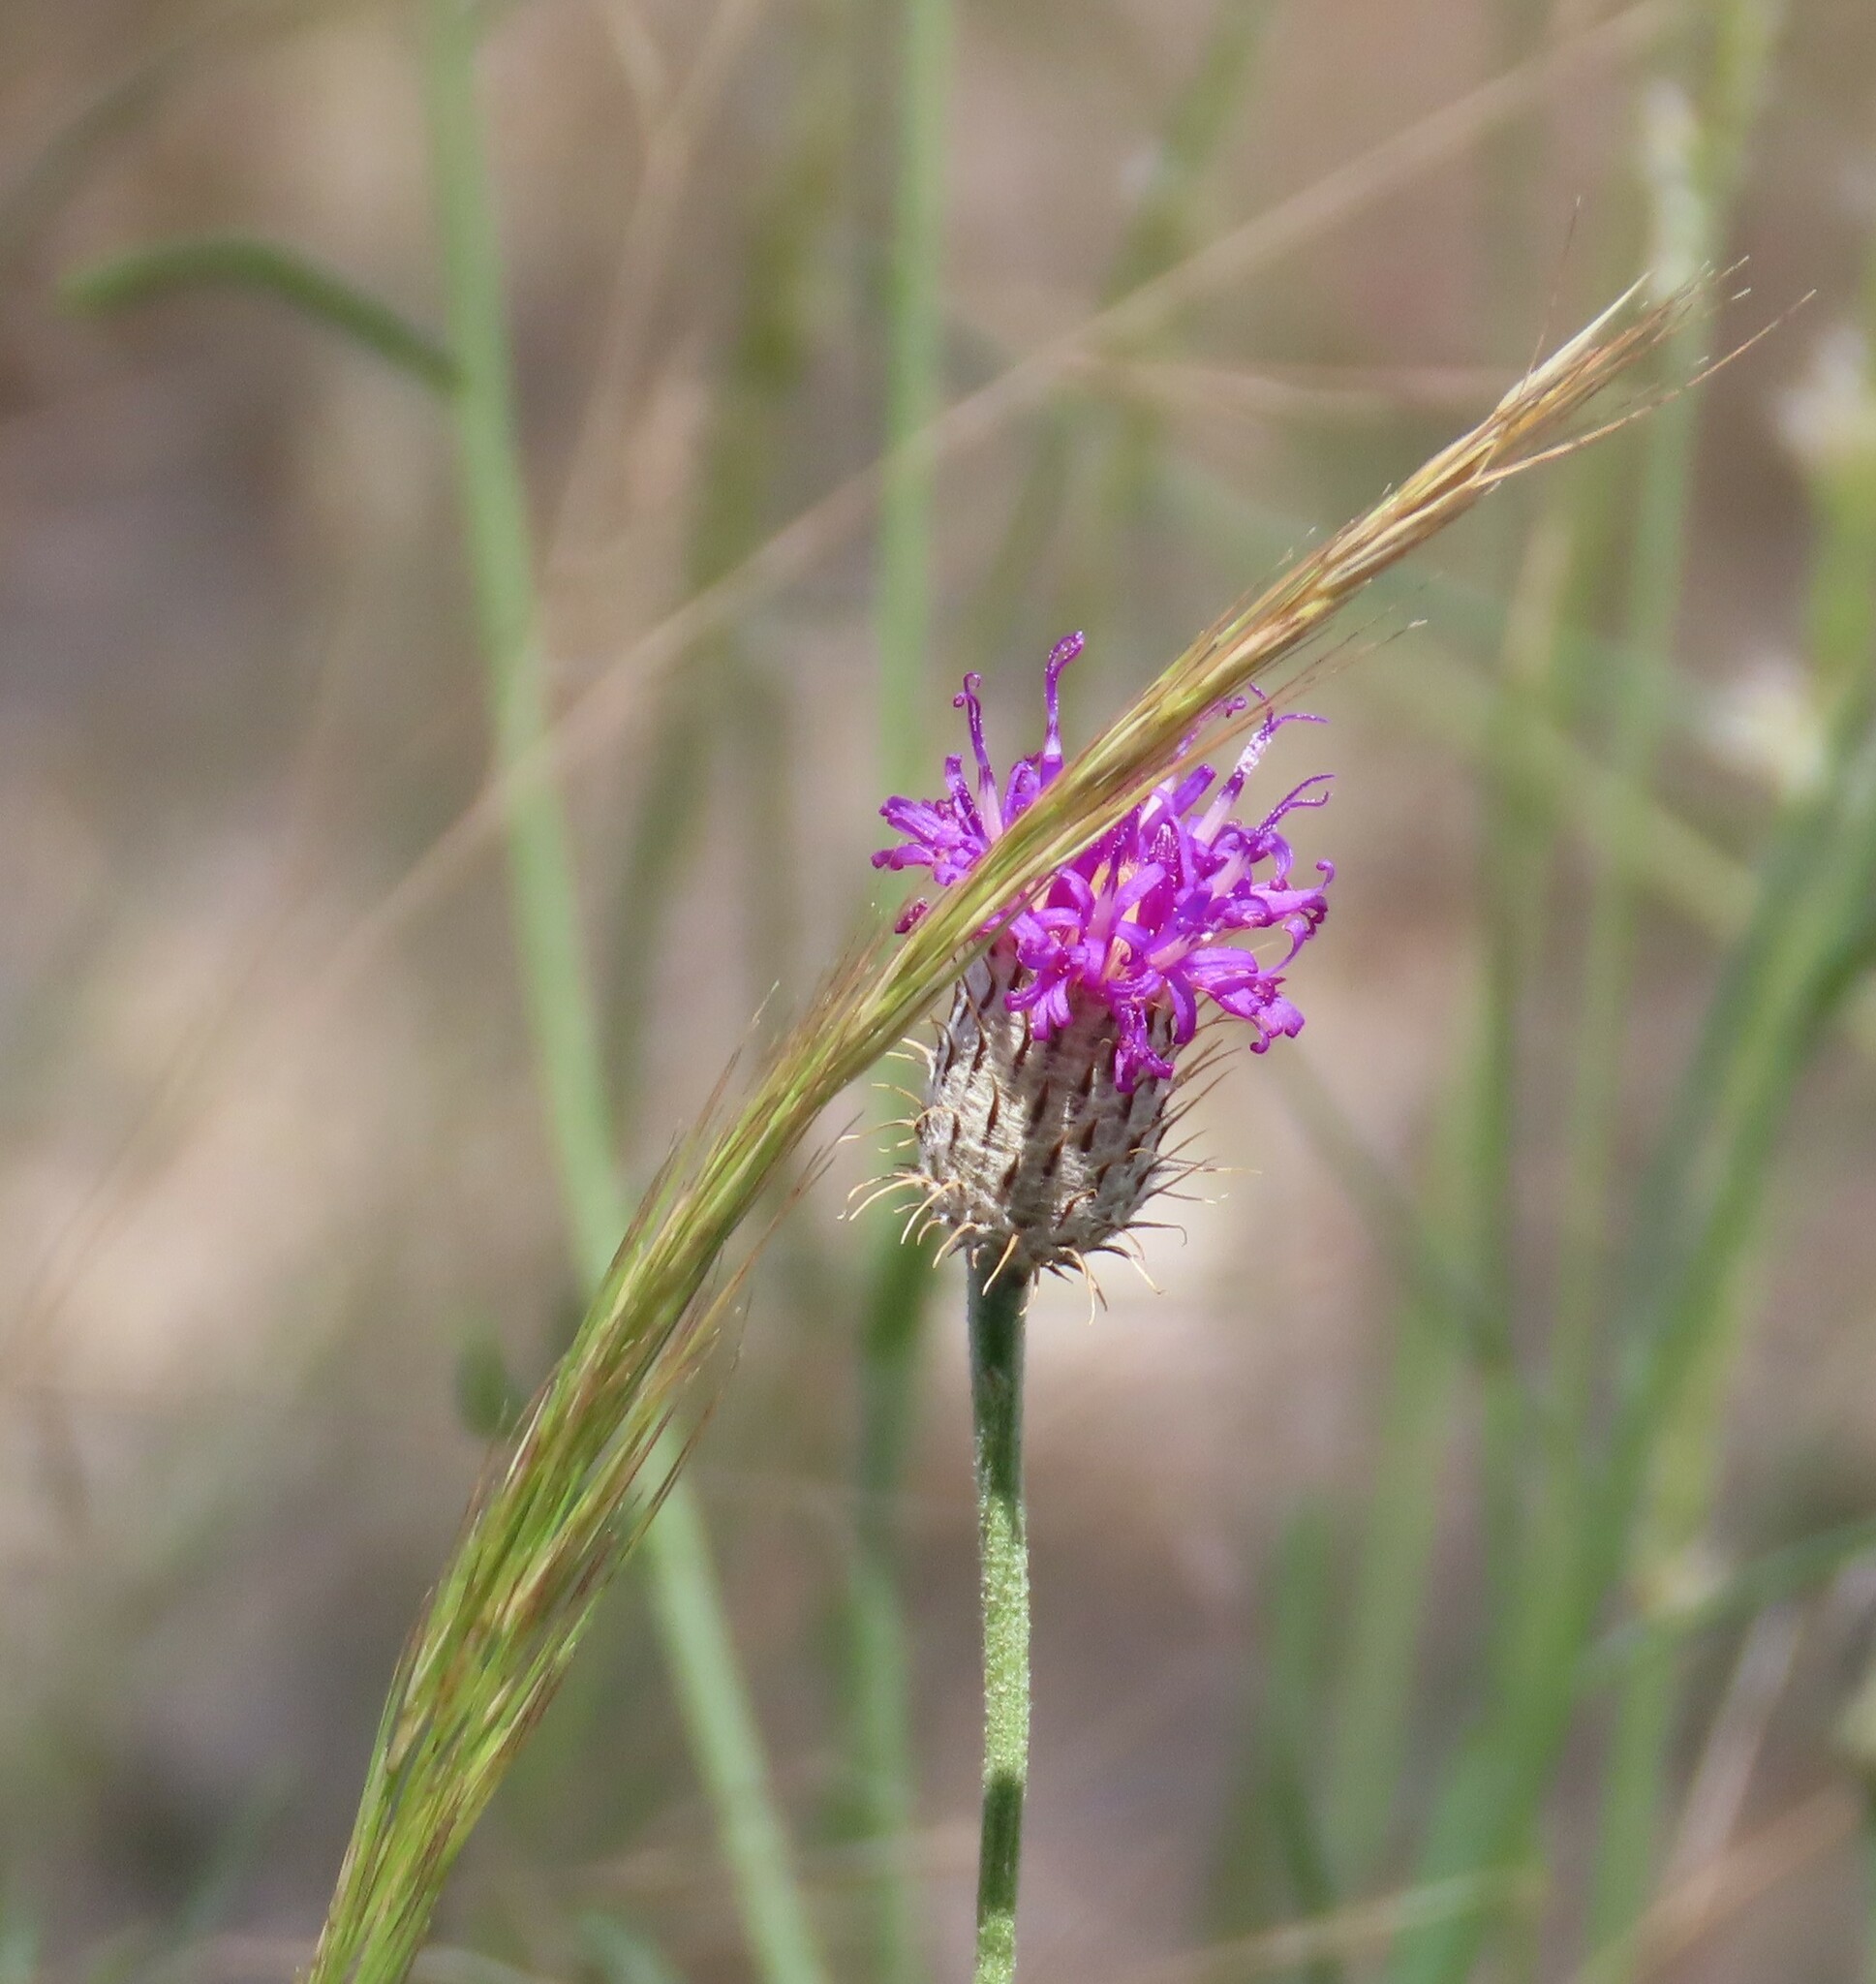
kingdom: Plantae
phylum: Tracheophyta
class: Magnoliopsida
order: Asterales
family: Asteraceae
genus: Parapolydora
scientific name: Parapolydora fastigiata
